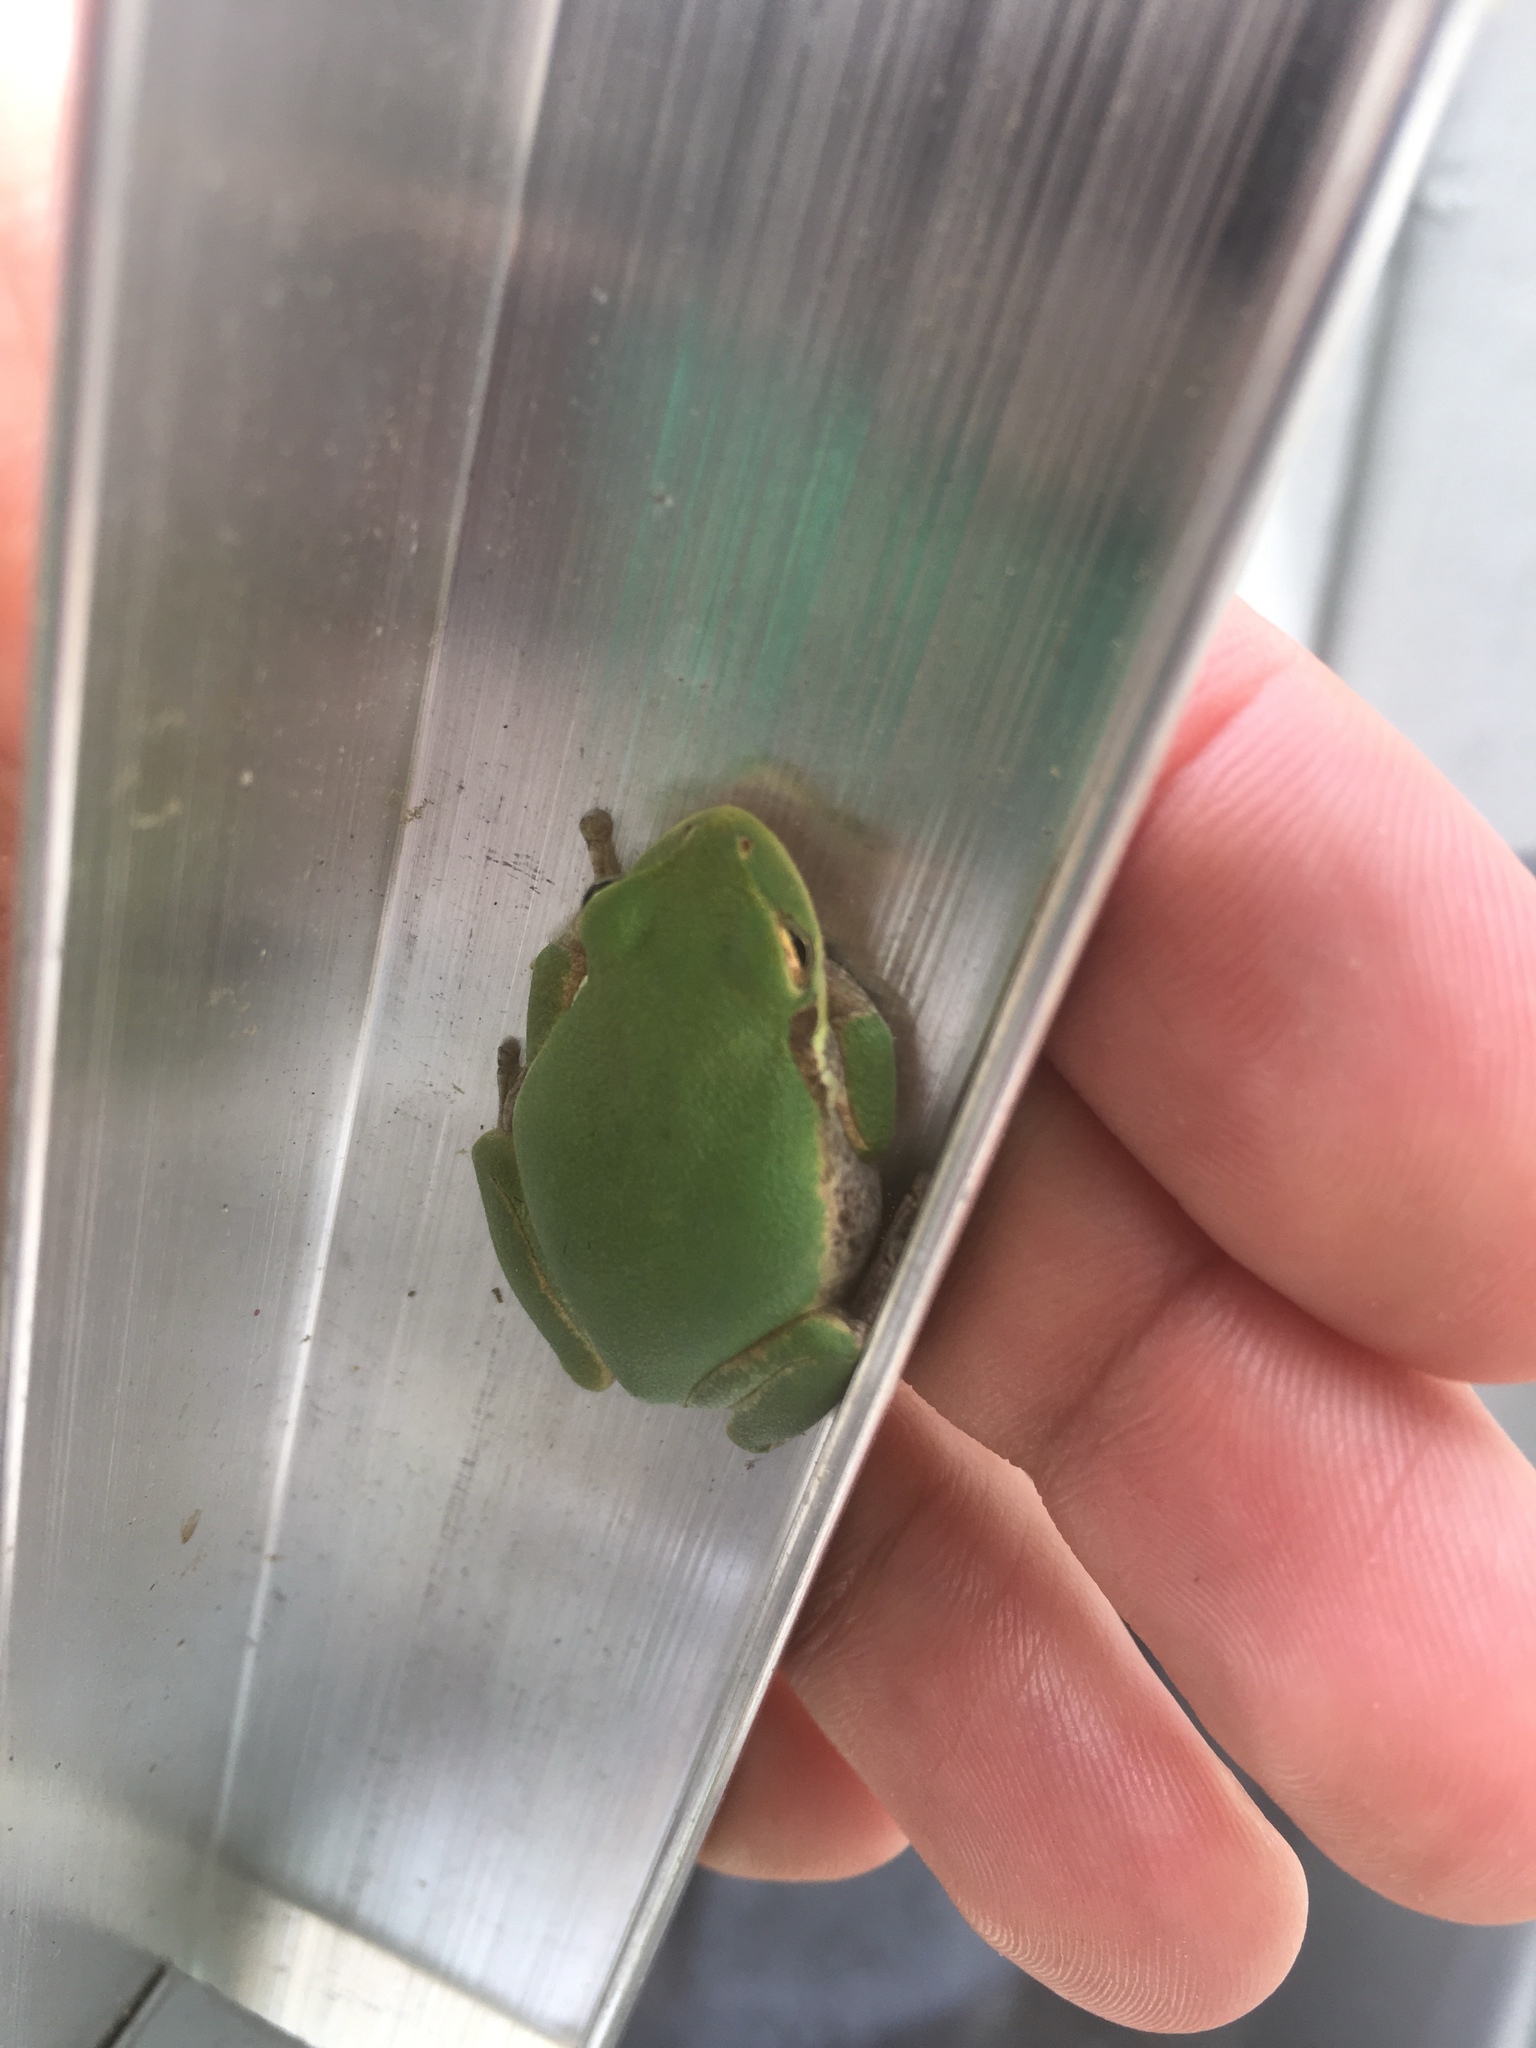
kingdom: Animalia
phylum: Chordata
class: Amphibia
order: Anura
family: Hylidae
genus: Dryophytes
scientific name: Dryophytes squirellus
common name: Squirrel treefrog
